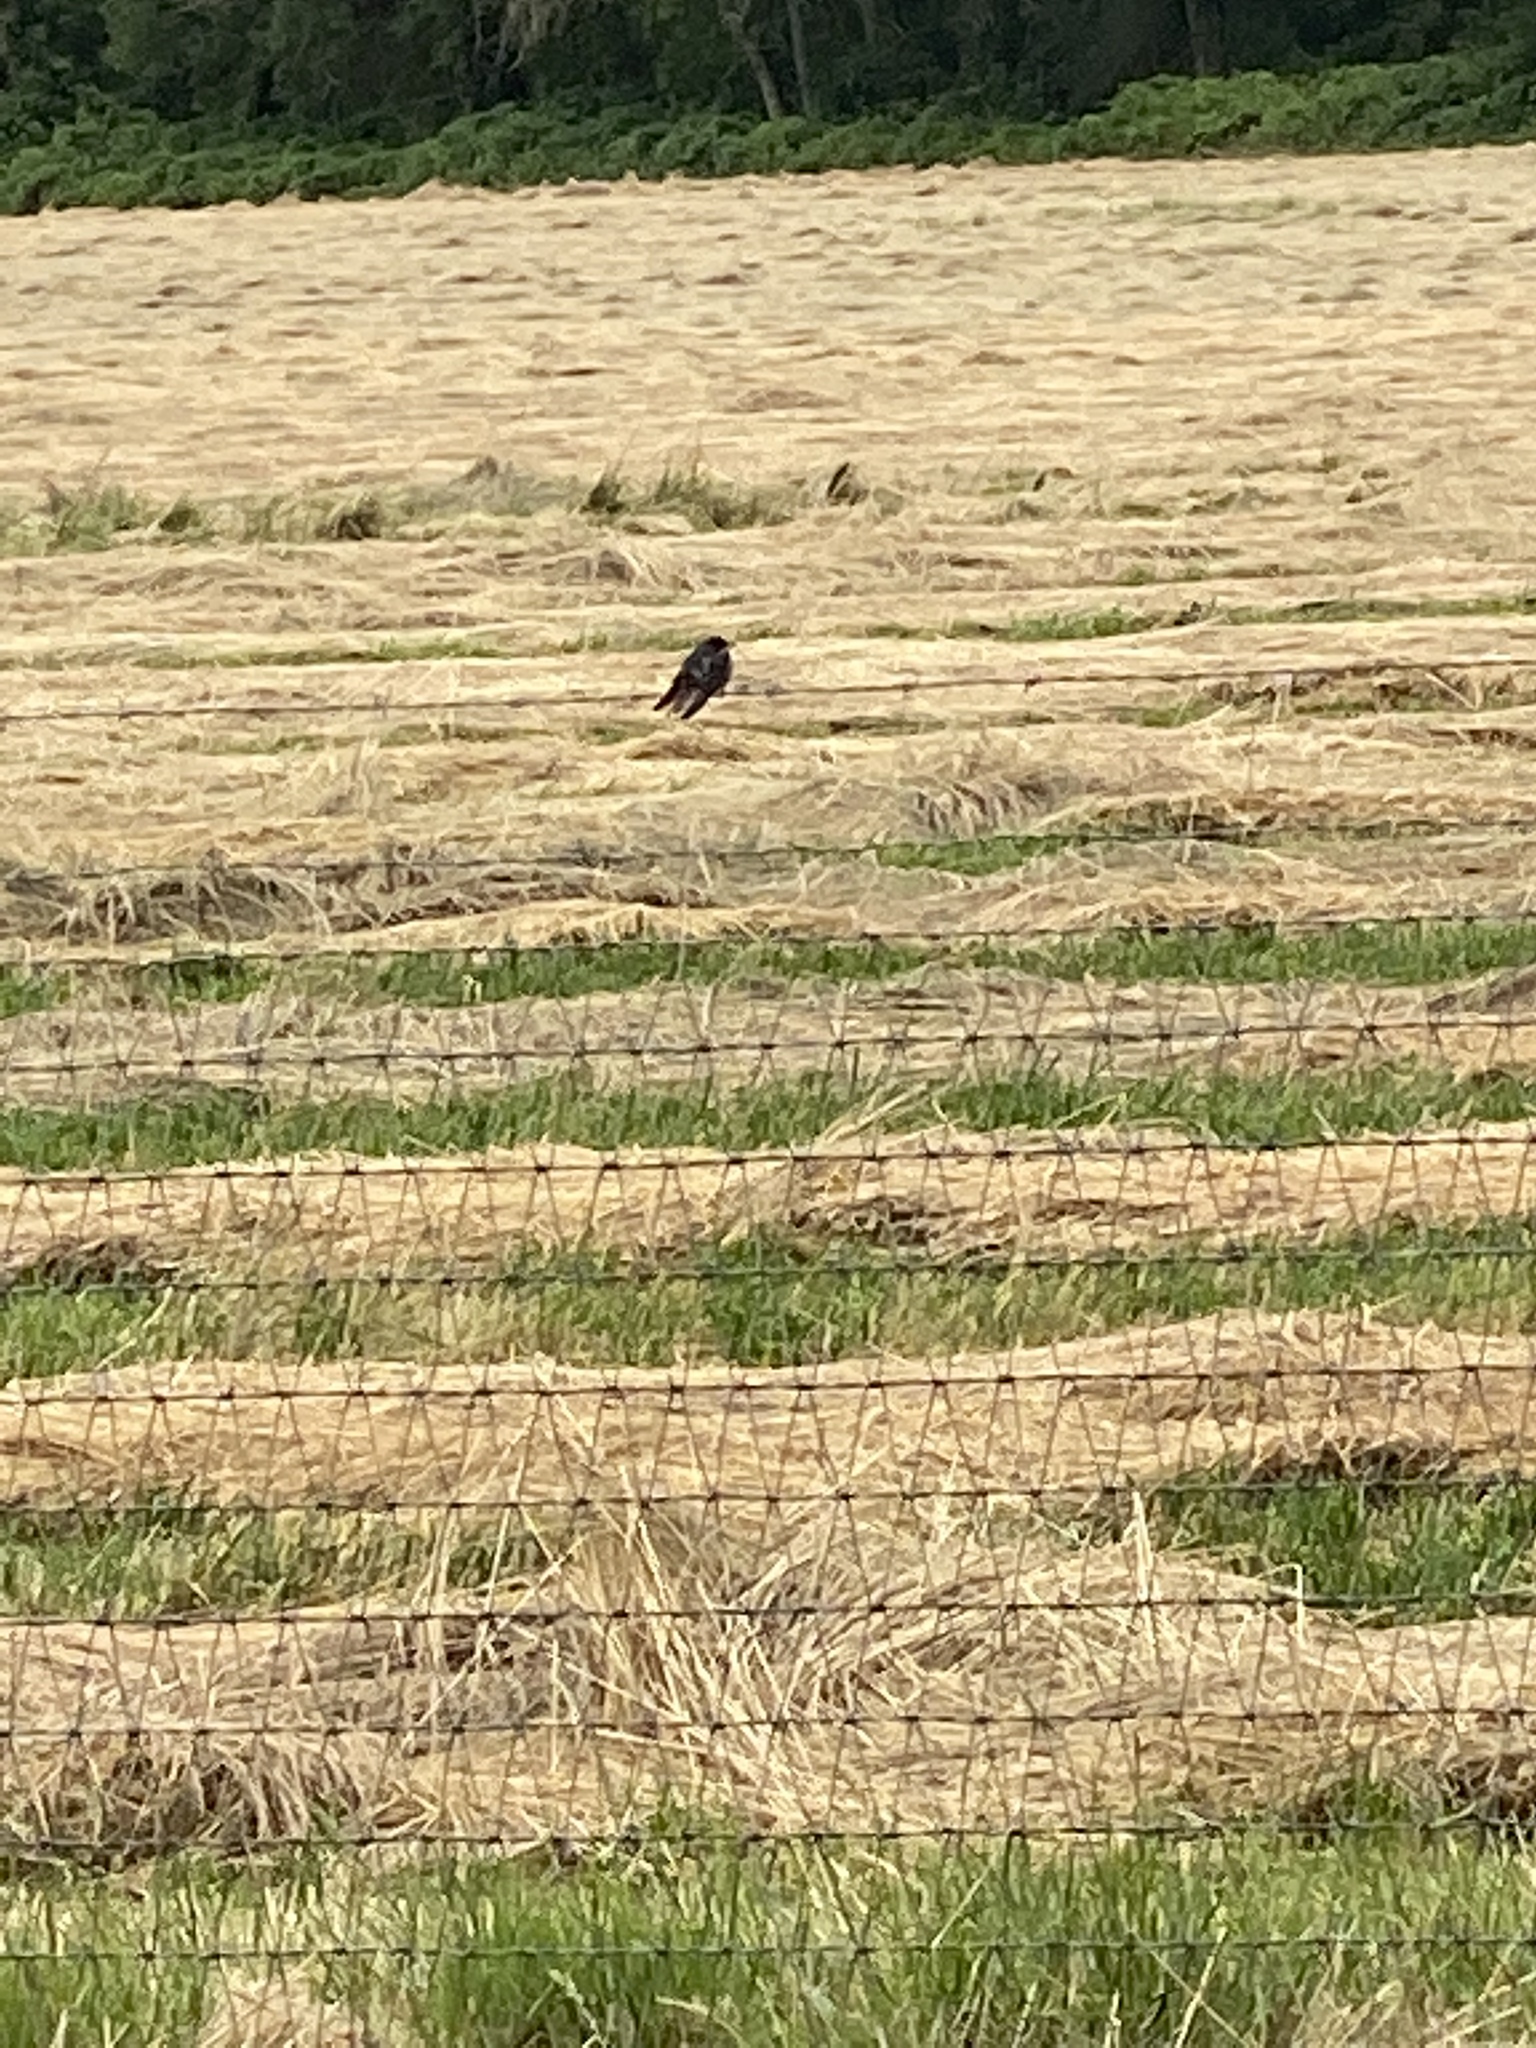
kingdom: Animalia
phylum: Chordata
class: Aves
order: Passeriformes
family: Hirundinidae
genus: Hirundo
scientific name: Hirundo rustica
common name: Barn swallow
